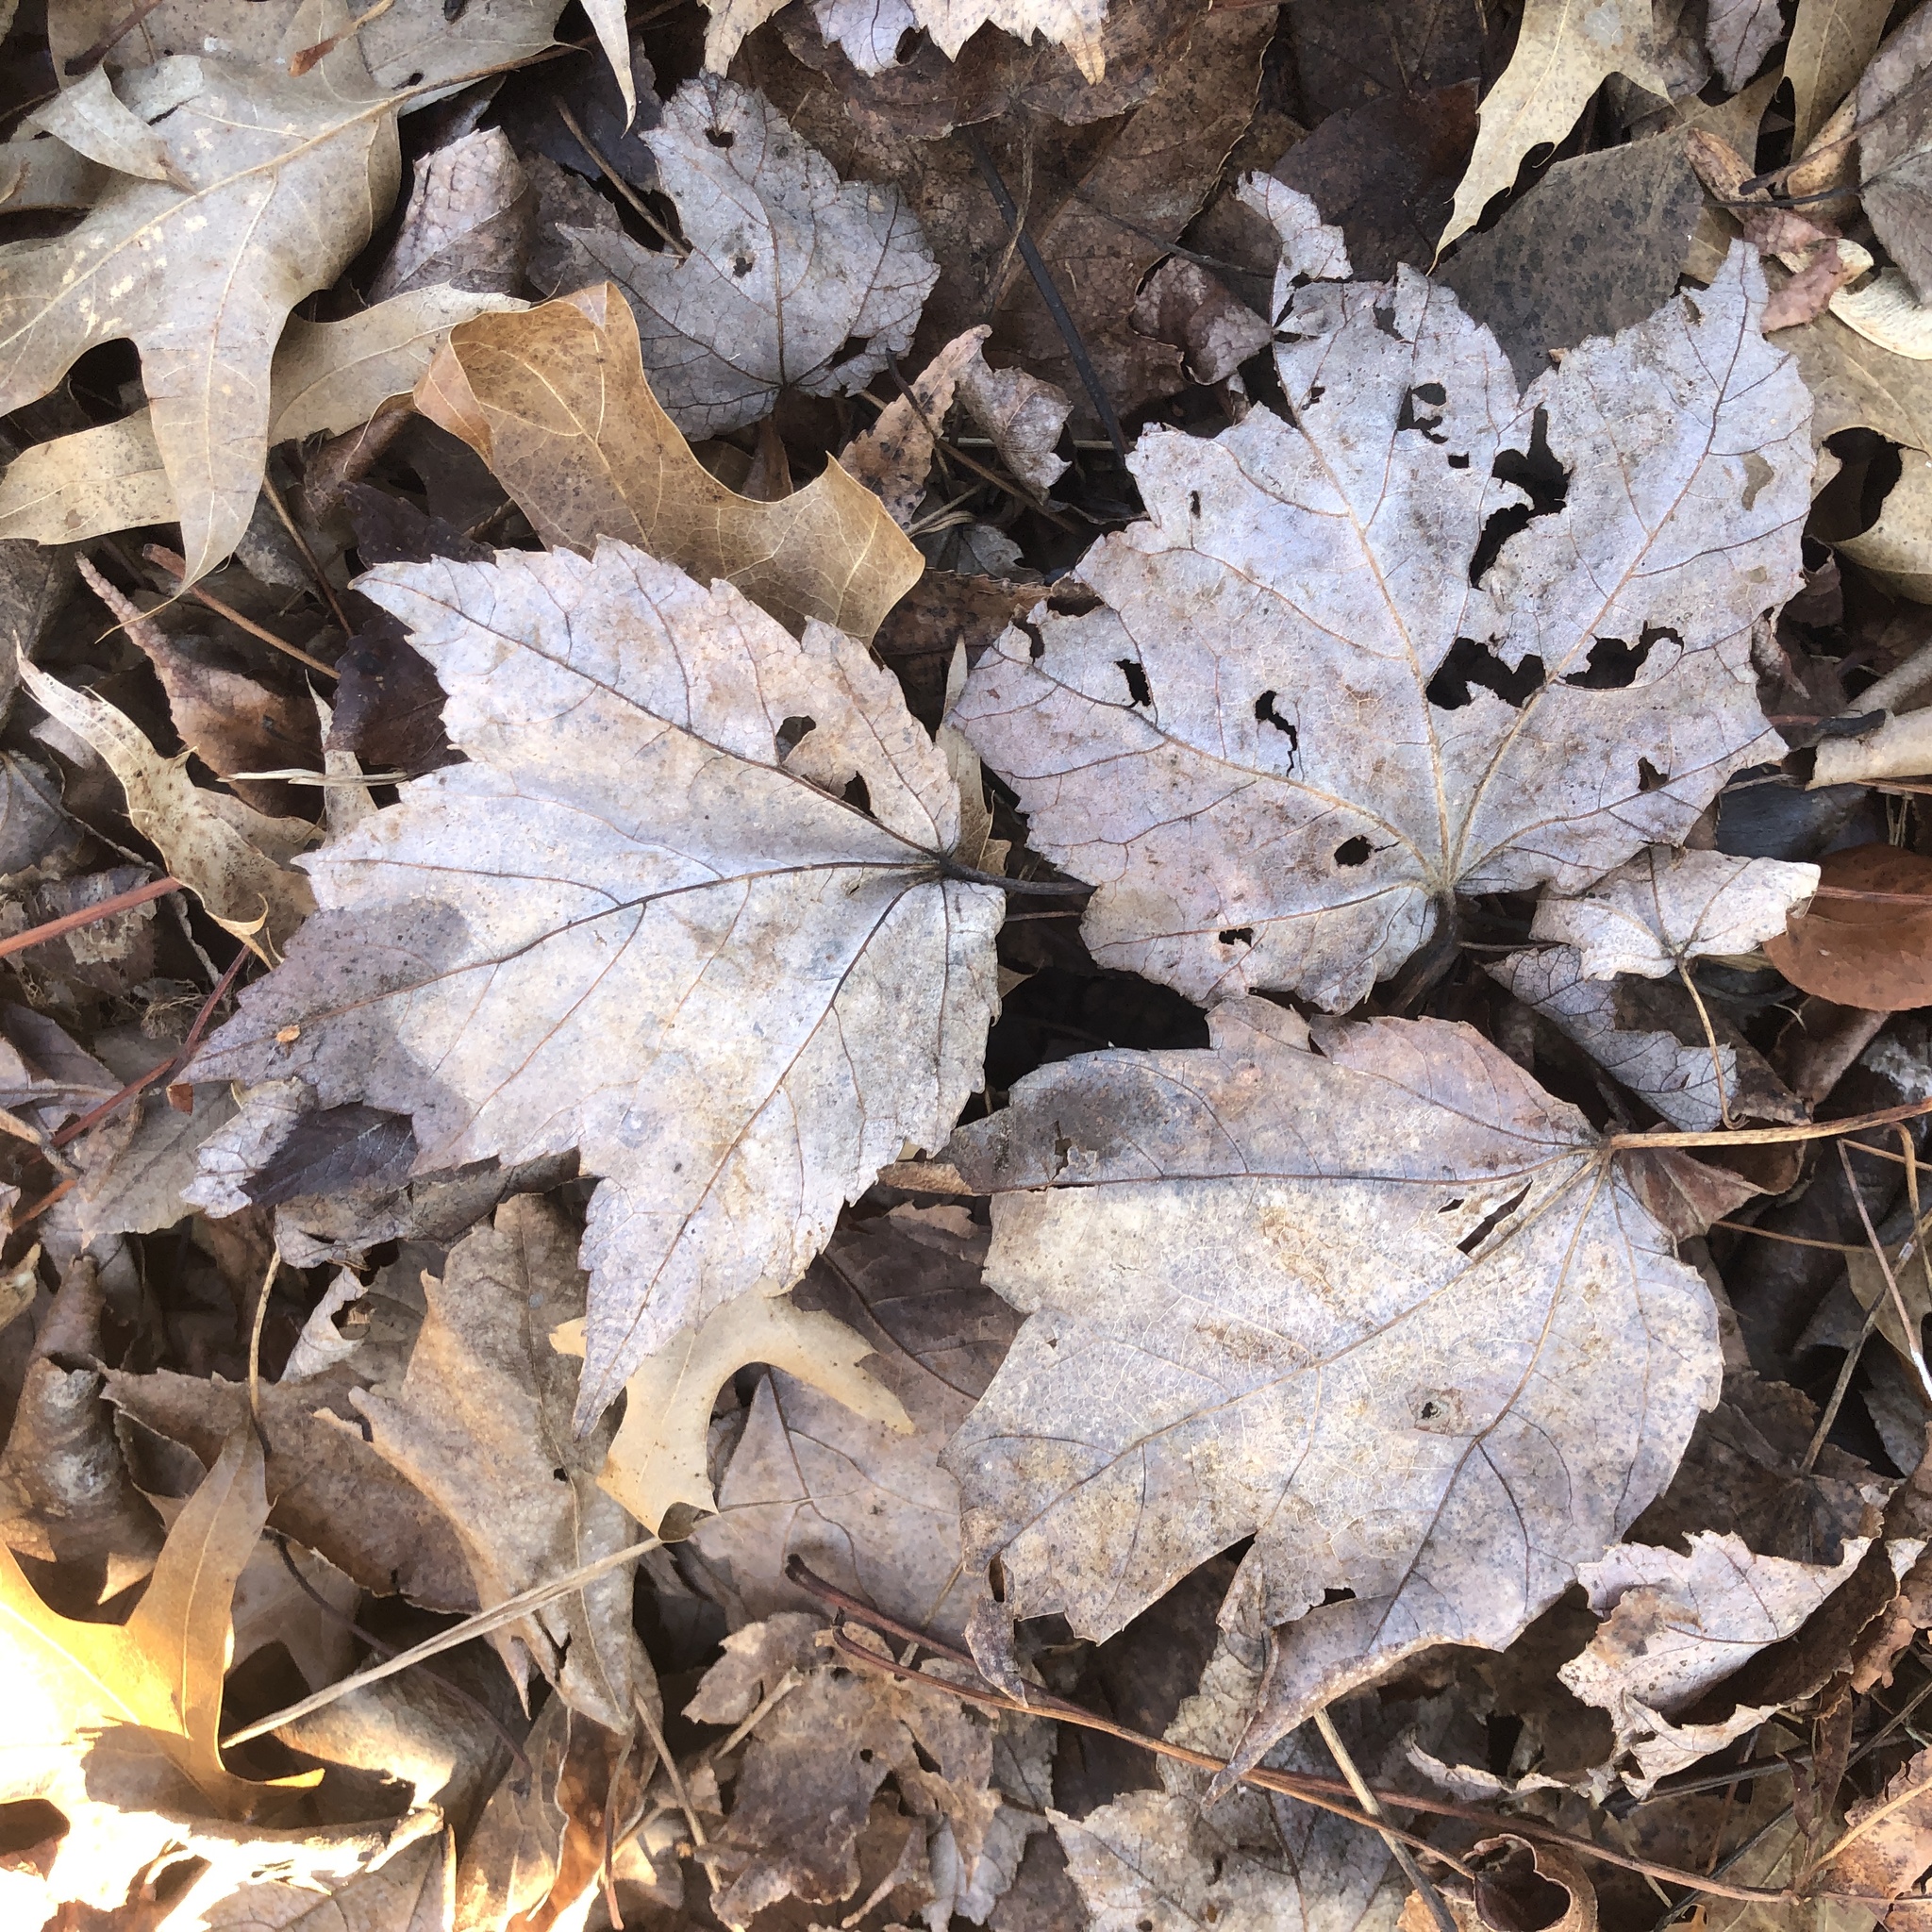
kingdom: Plantae
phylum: Tracheophyta
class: Magnoliopsida
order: Sapindales
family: Sapindaceae
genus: Acer
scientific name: Acer rubrum
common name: Red maple
